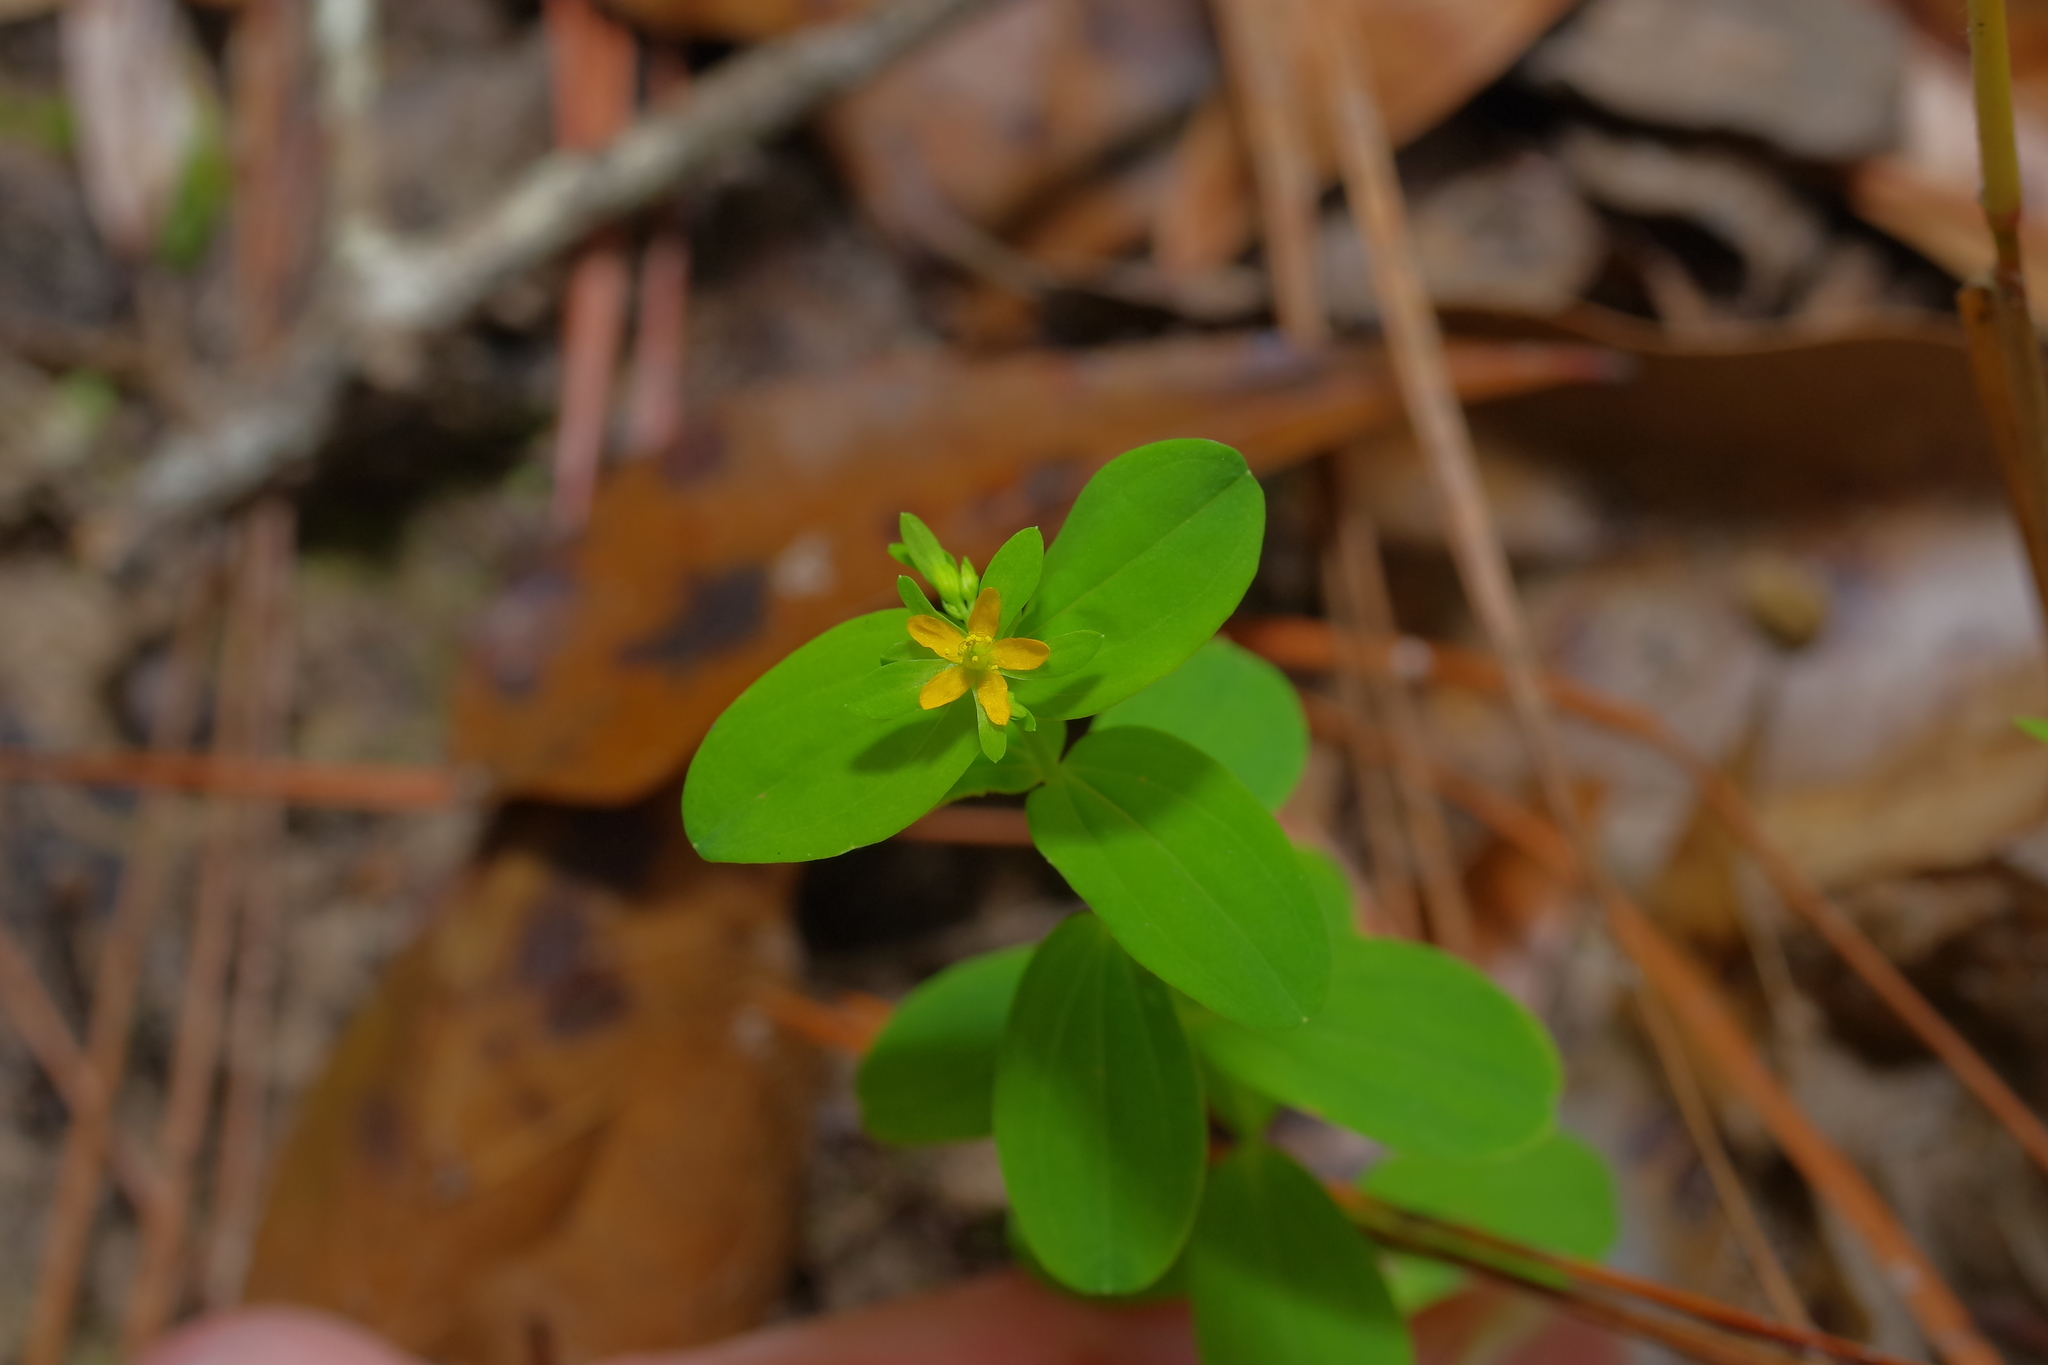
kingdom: Plantae
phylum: Tracheophyta
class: Magnoliopsida
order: Malpighiales
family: Hypericaceae
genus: Hypericum
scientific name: Hypericum mutilum
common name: Dwarf st. john's-wort
